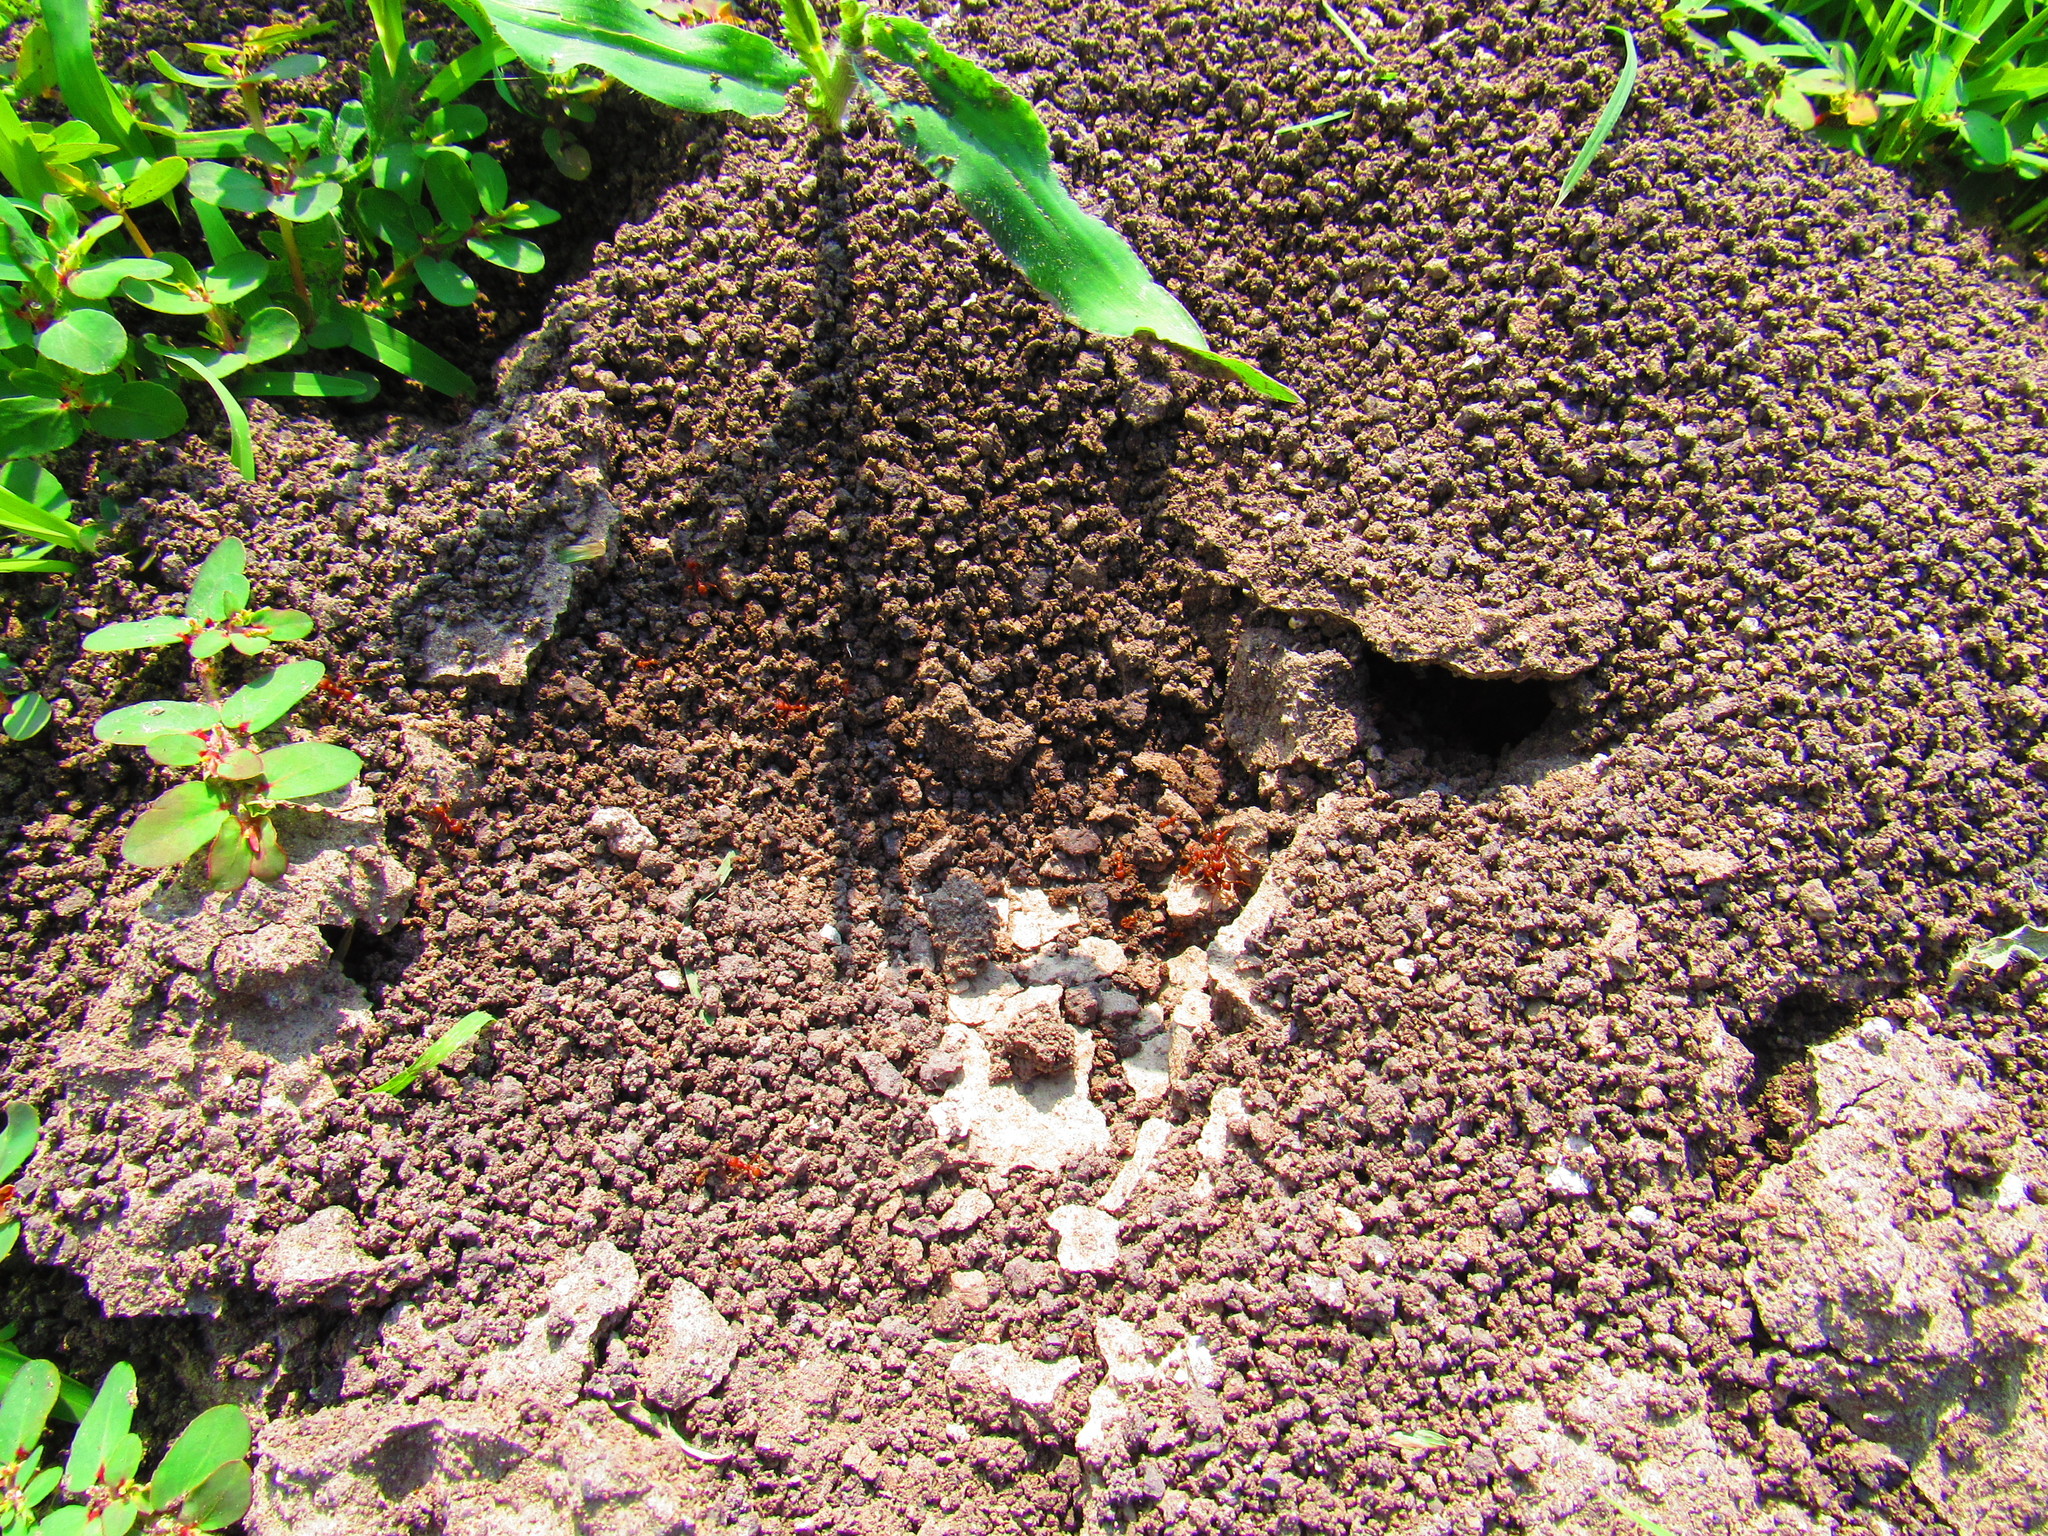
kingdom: Animalia
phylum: Arthropoda
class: Insecta
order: Hymenoptera
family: Formicidae
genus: Atta
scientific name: Atta mexicana
